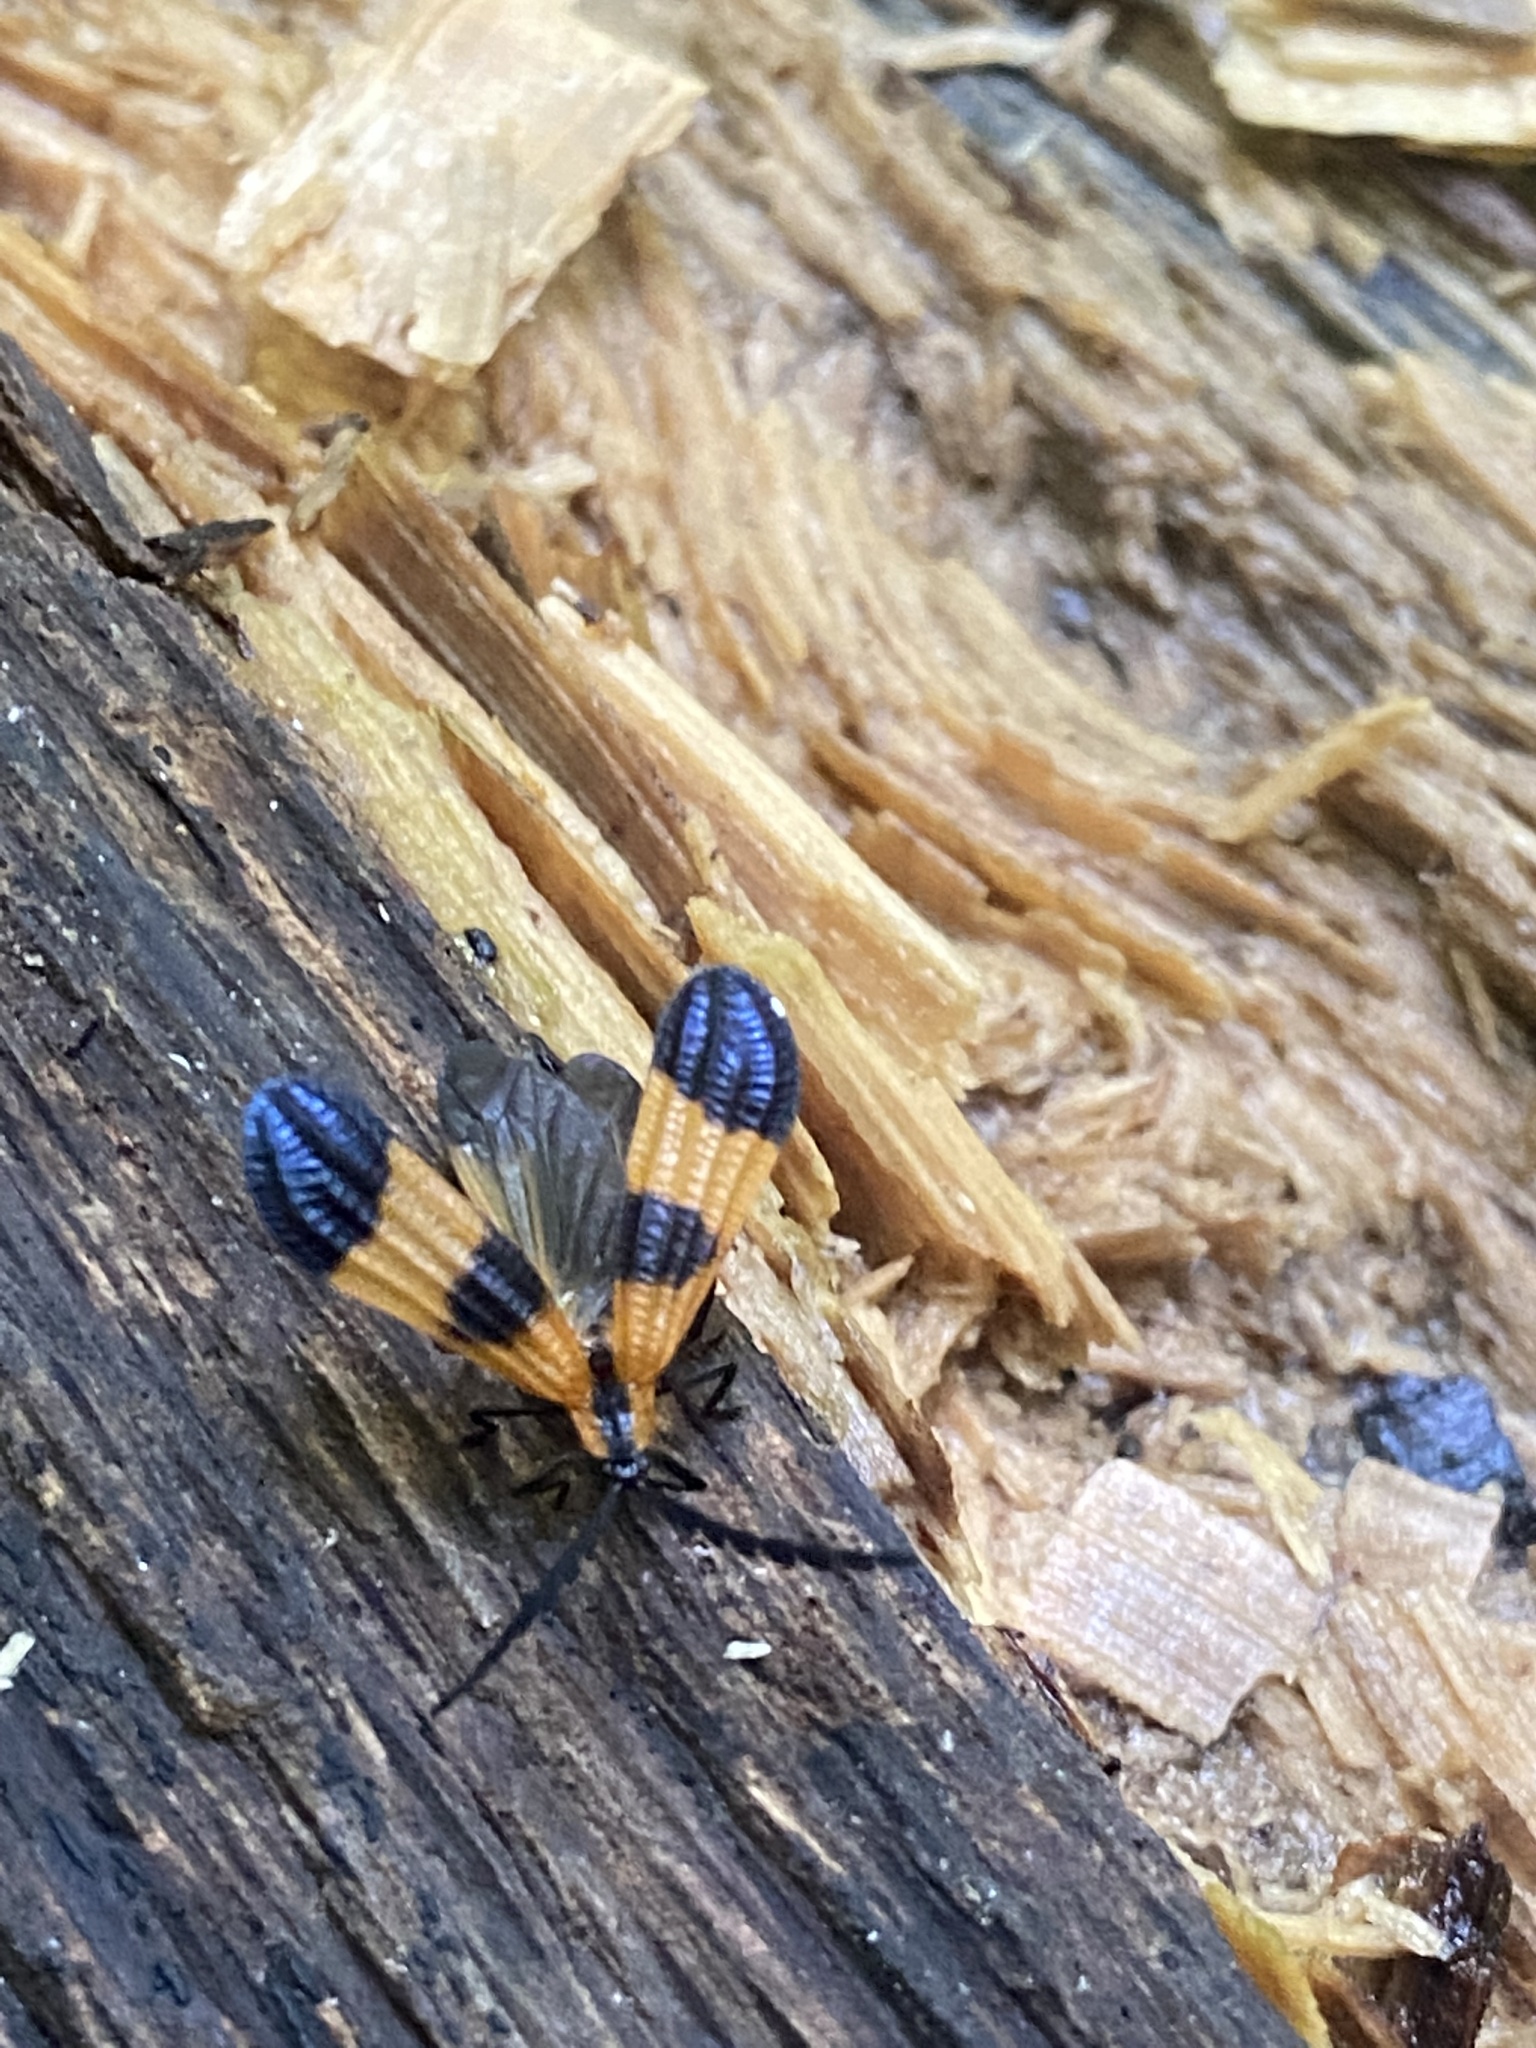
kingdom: Animalia
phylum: Arthropoda
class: Insecta
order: Coleoptera
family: Lycidae
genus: Calopteron
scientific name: Calopteron terminale
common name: End band net-winged beetle
